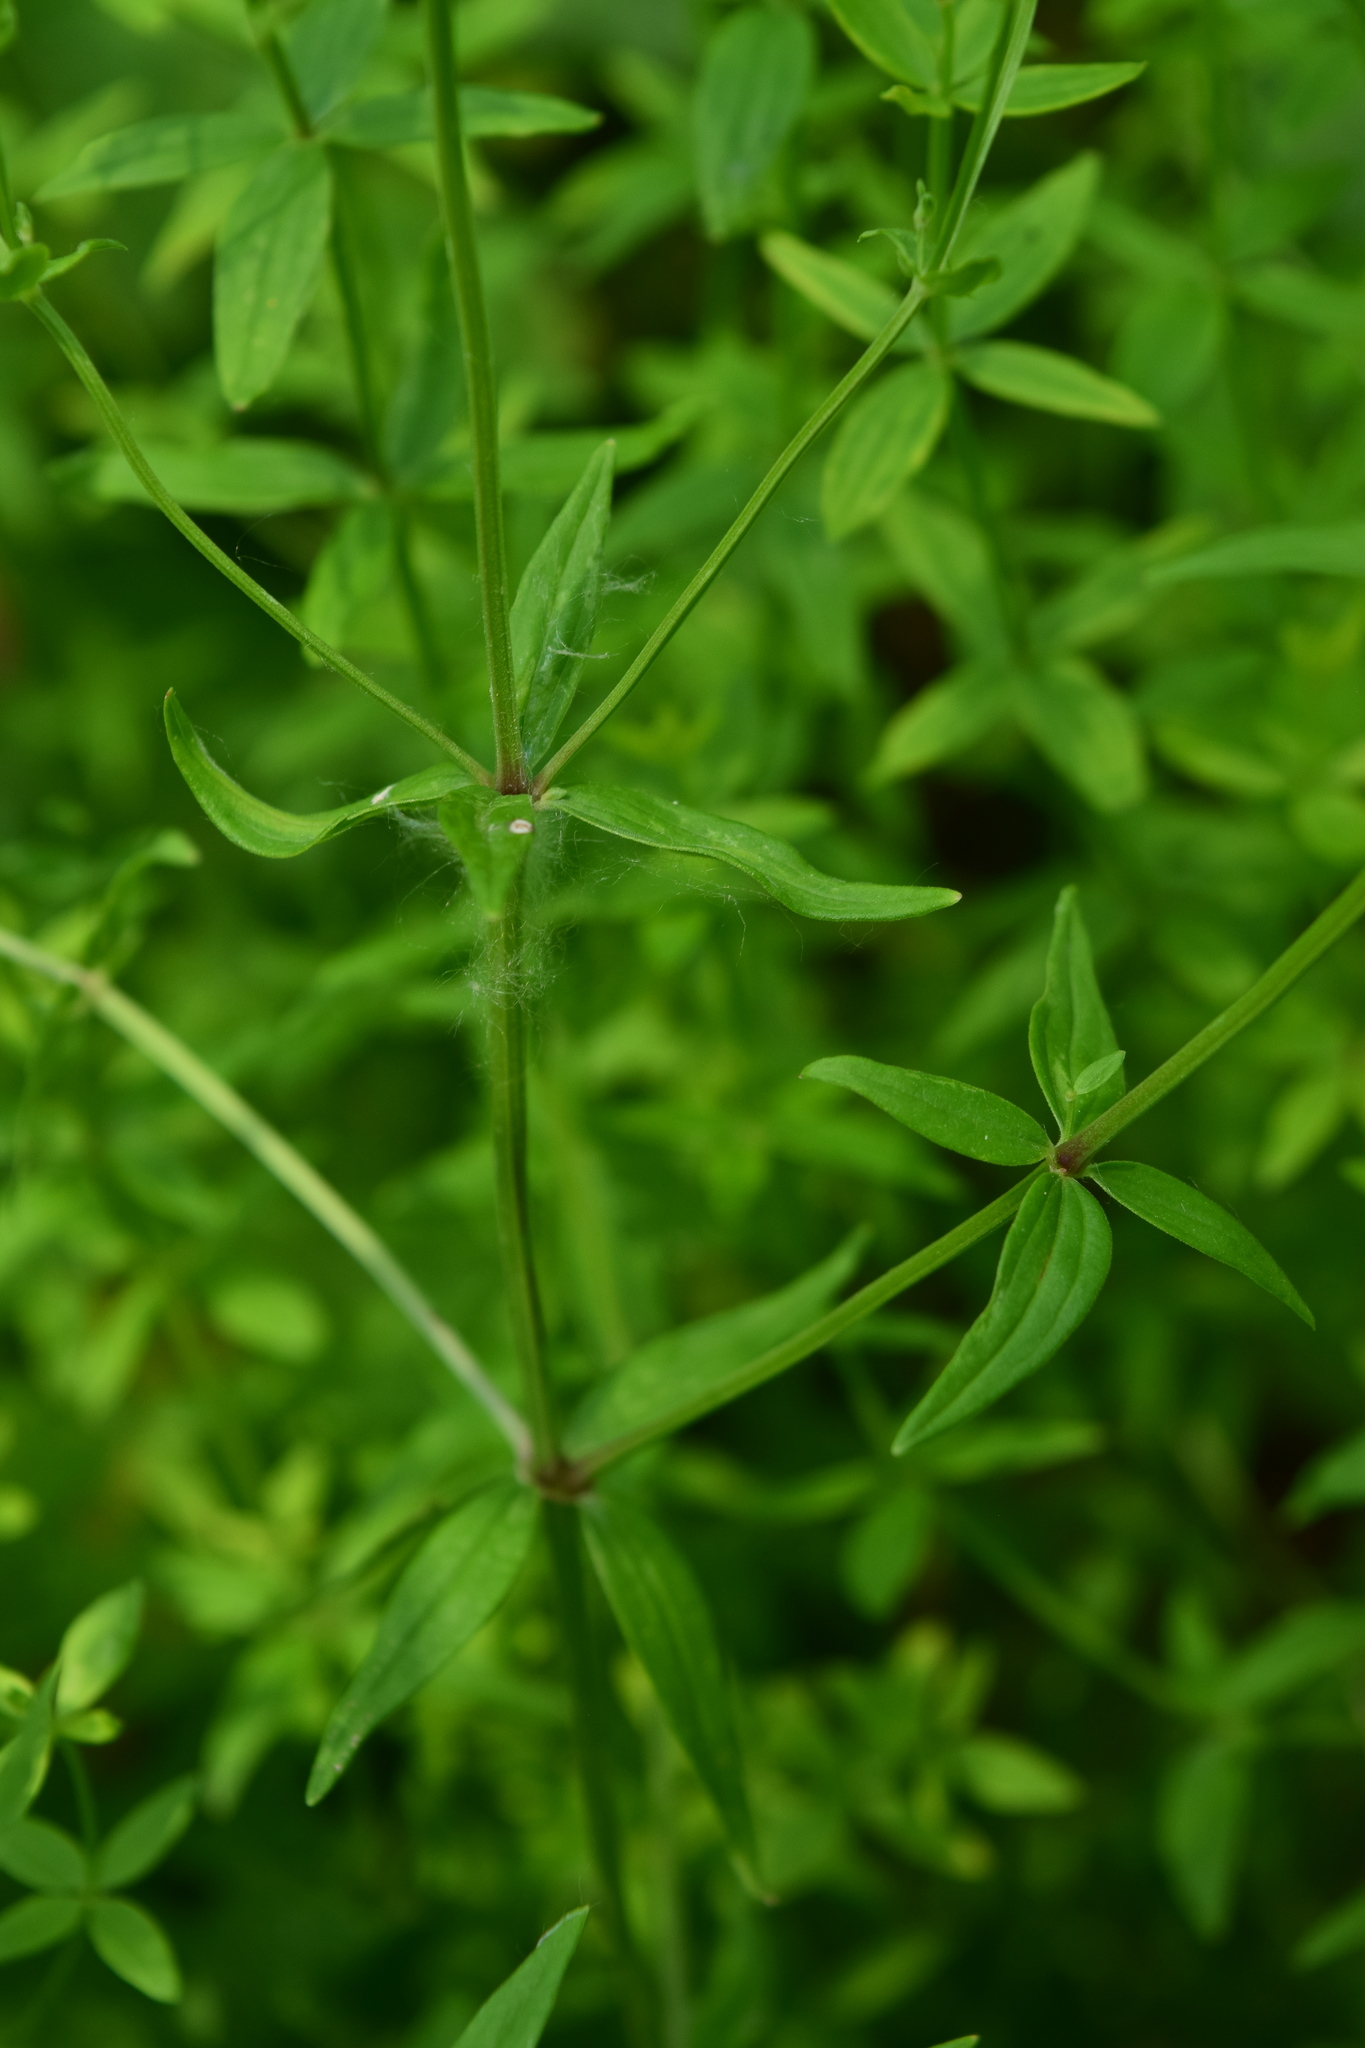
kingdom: Plantae
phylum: Tracheophyta
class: Magnoliopsida
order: Gentianales
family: Rubiaceae
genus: Galium
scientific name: Galium boreale
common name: Northern bedstraw
